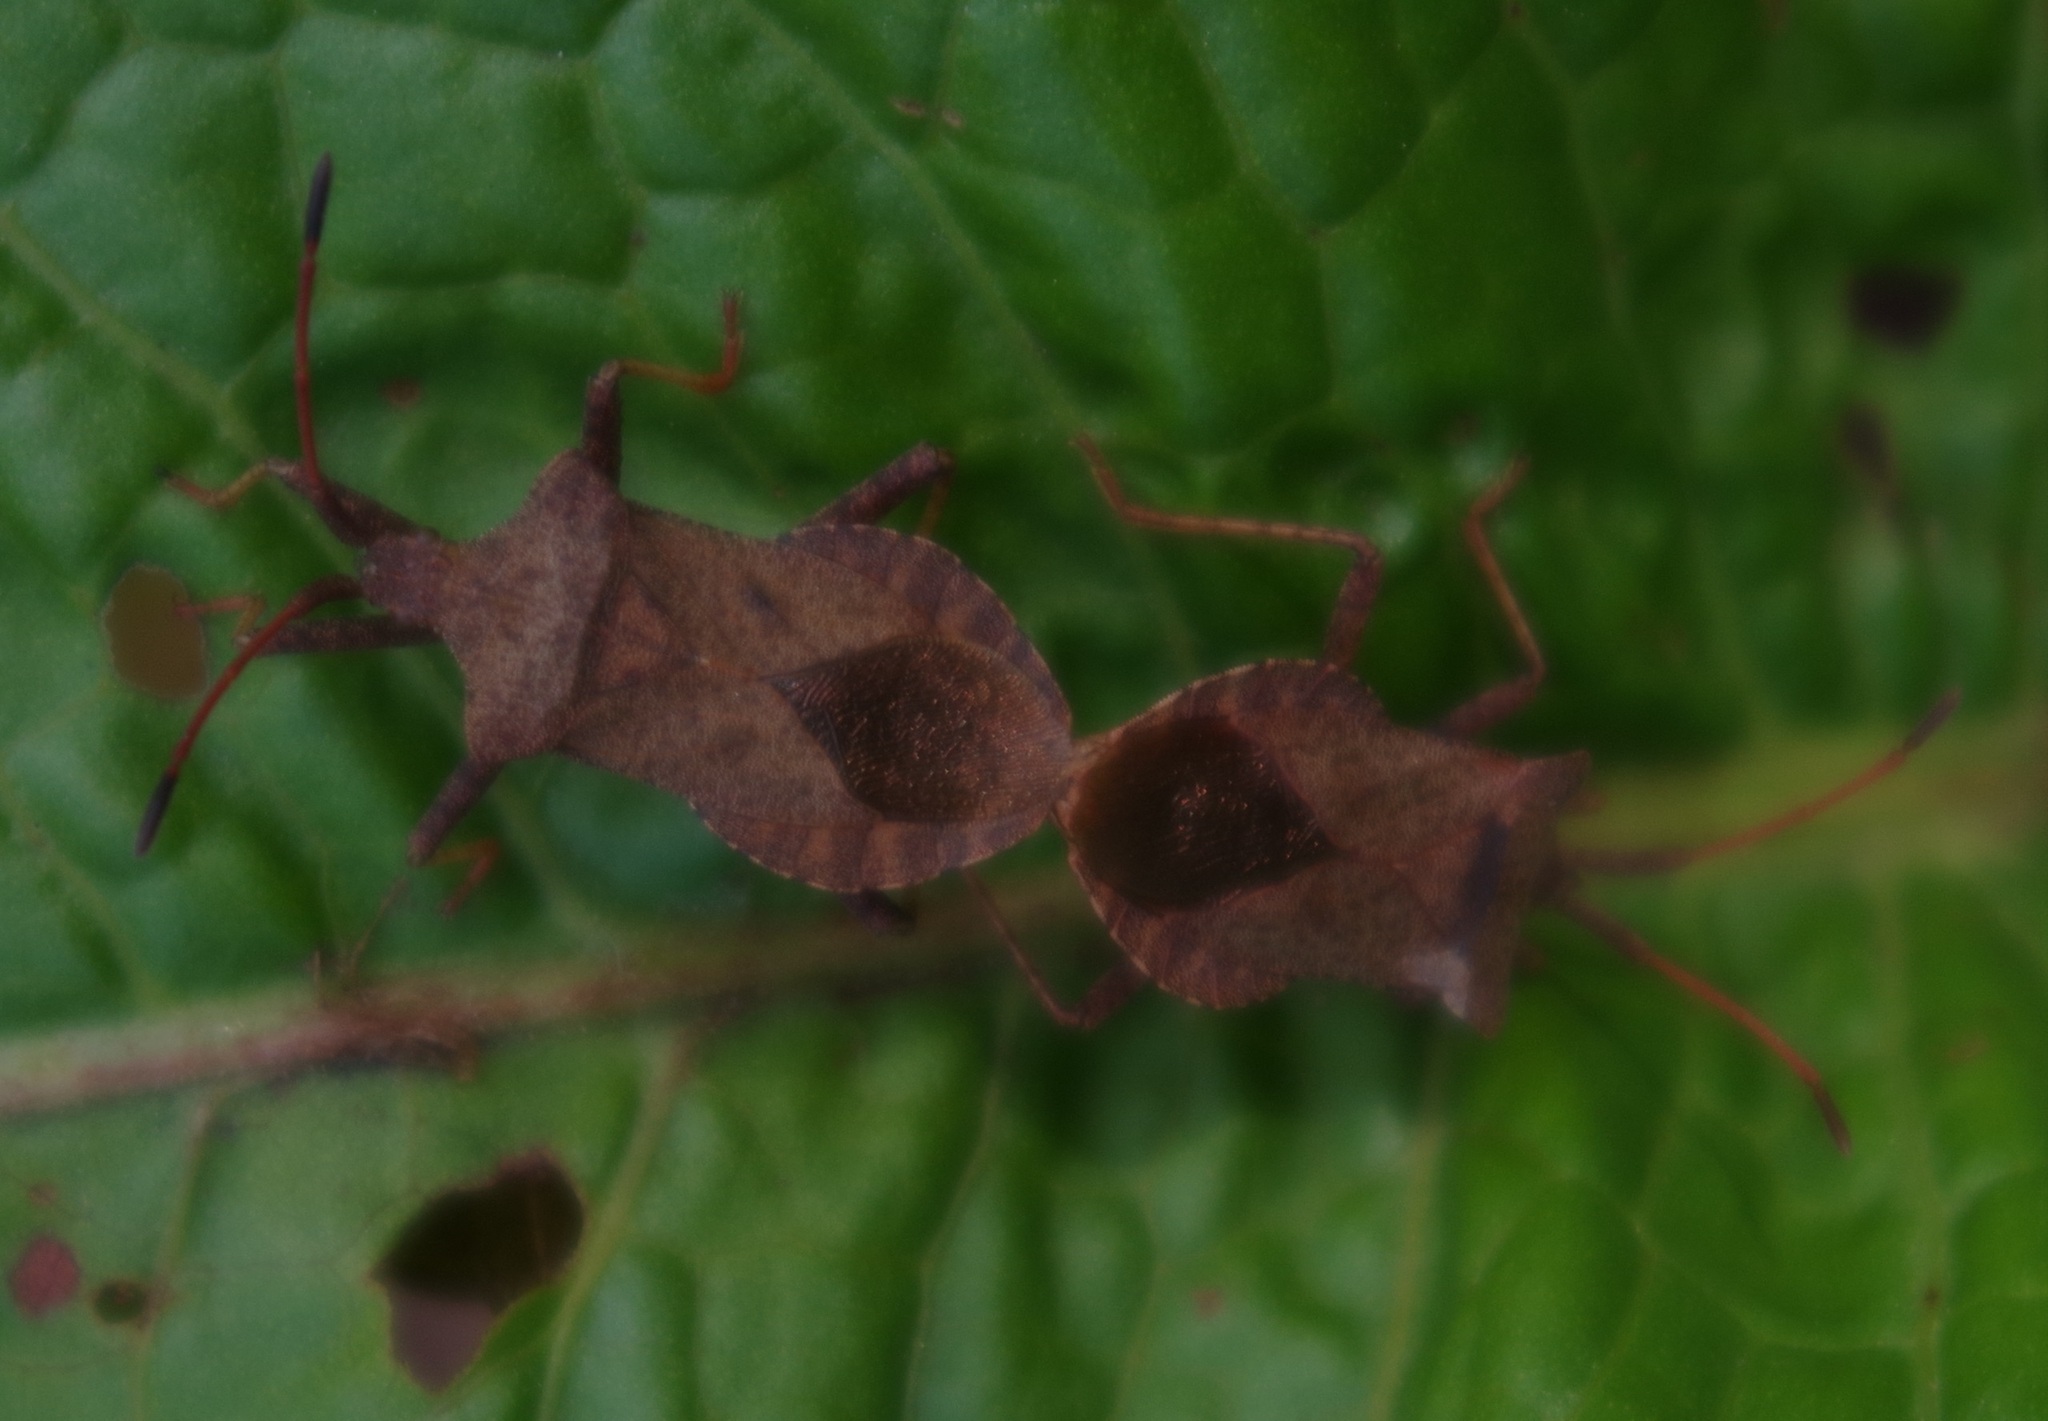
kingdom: Animalia
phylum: Arthropoda
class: Insecta
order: Hemiptera
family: Coreidae
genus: Coreus
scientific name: Coreus marginatus
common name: Dock bug
